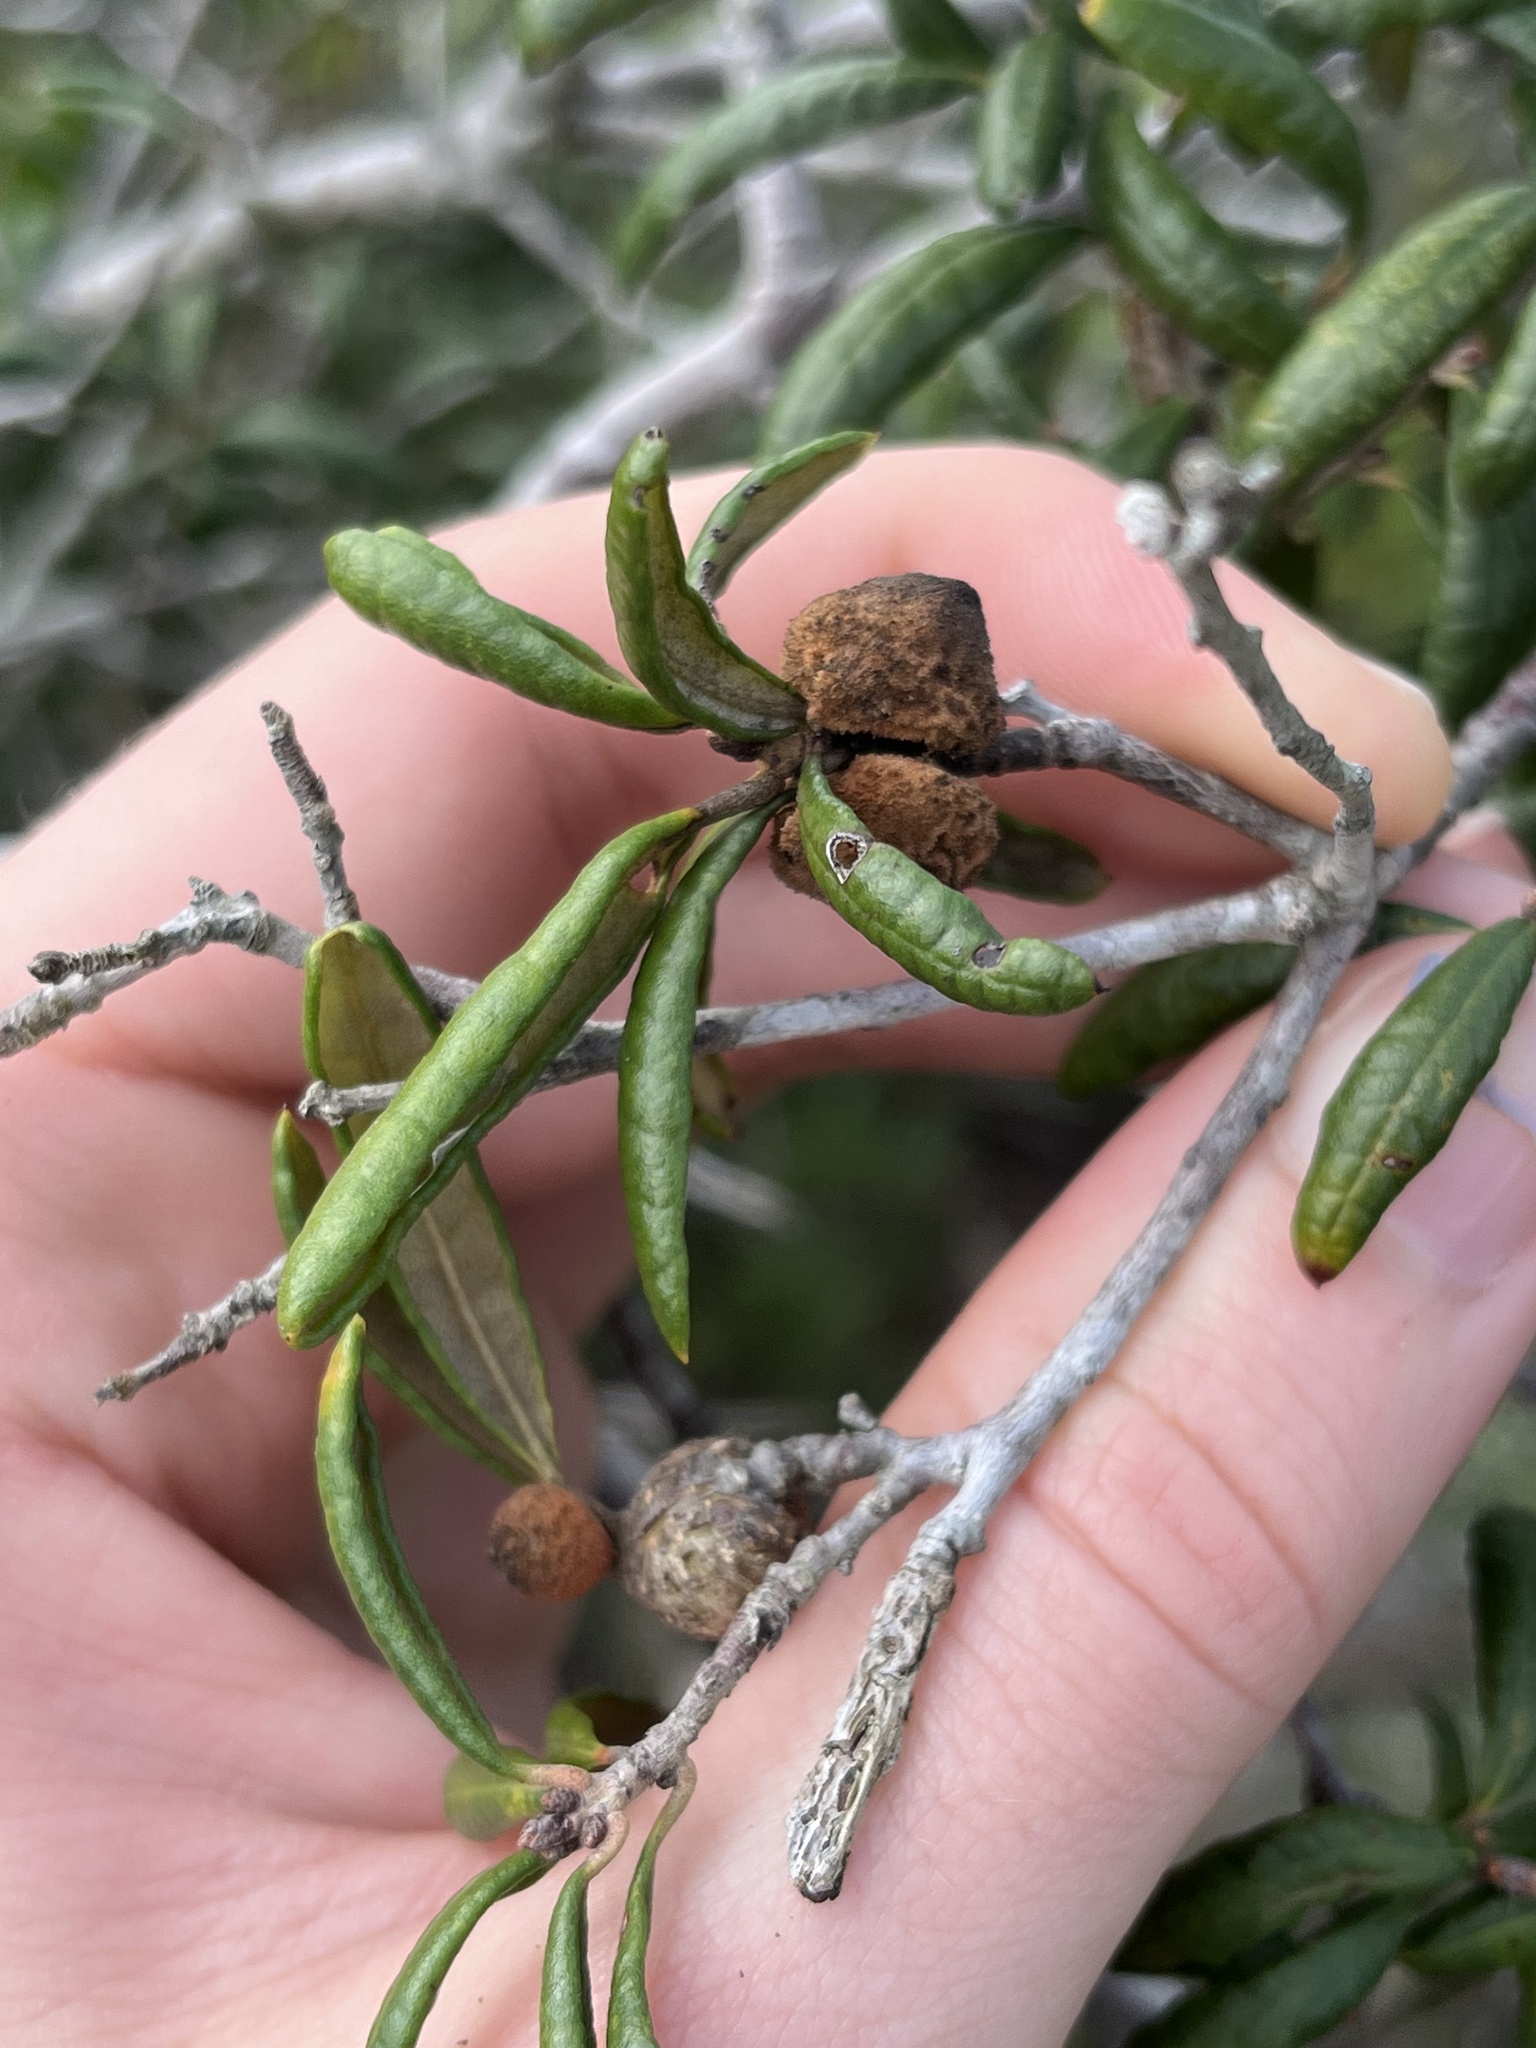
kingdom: Animalia
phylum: Arthropoda
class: Insecta
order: Hymenoptera
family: Cynipidae
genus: Disholcaspis
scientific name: Disholcaspis
